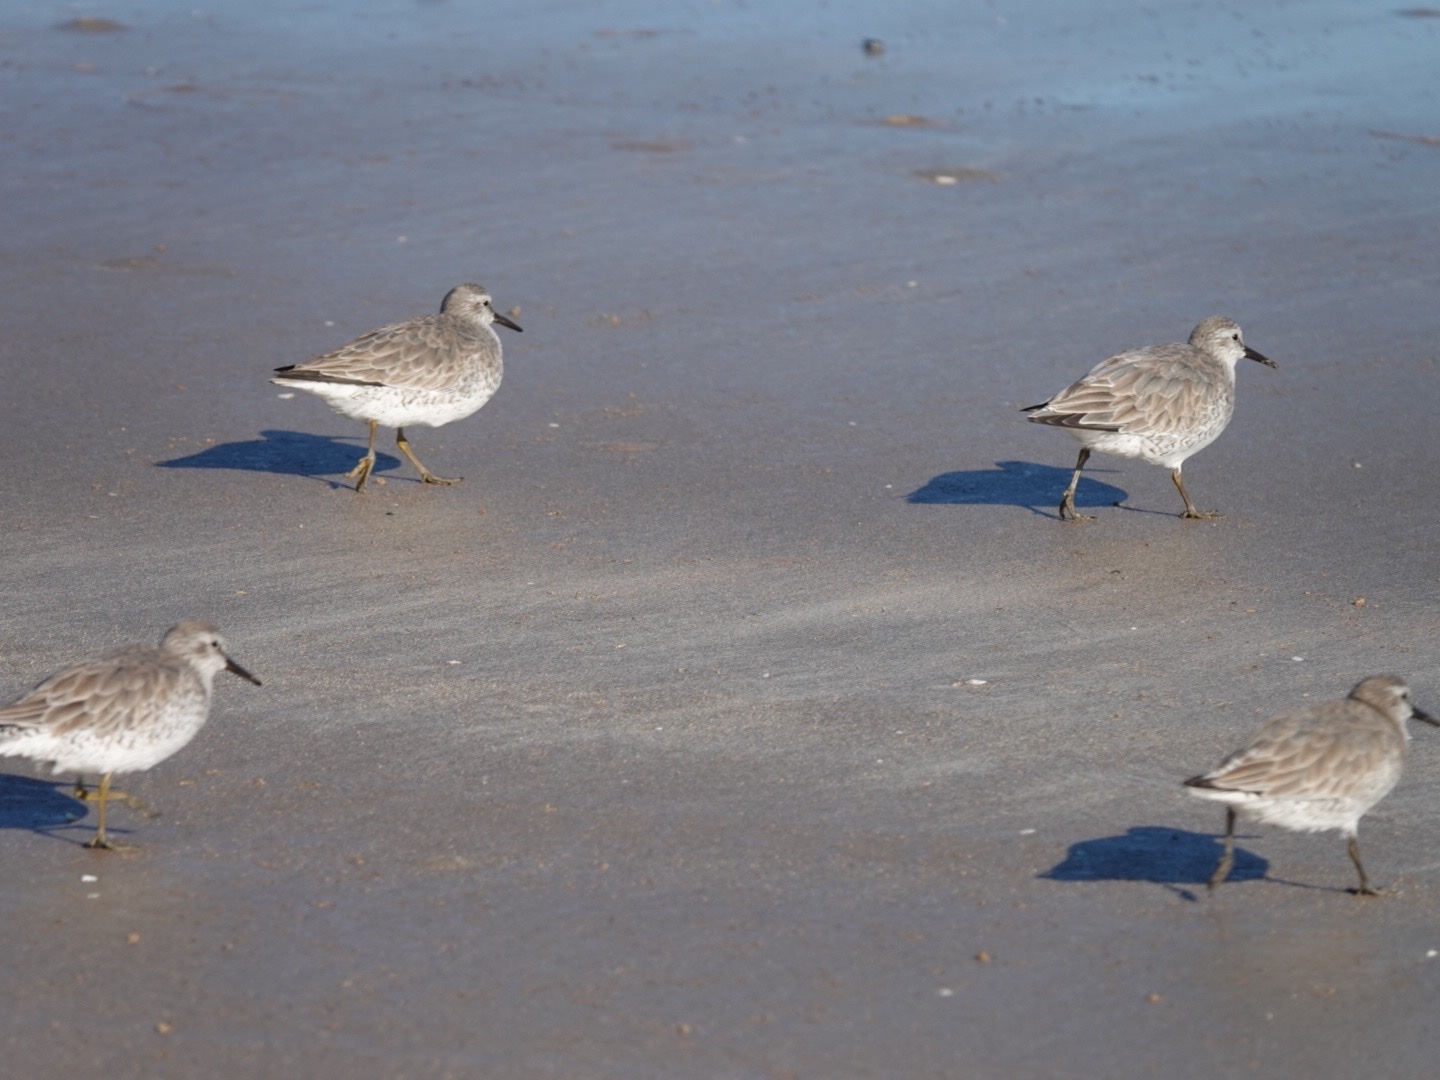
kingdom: Animalia
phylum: Chordata
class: Aves
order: Charadriiformes
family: Scolopacidae
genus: Calidris
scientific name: Calidris canutus
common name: Red knot
